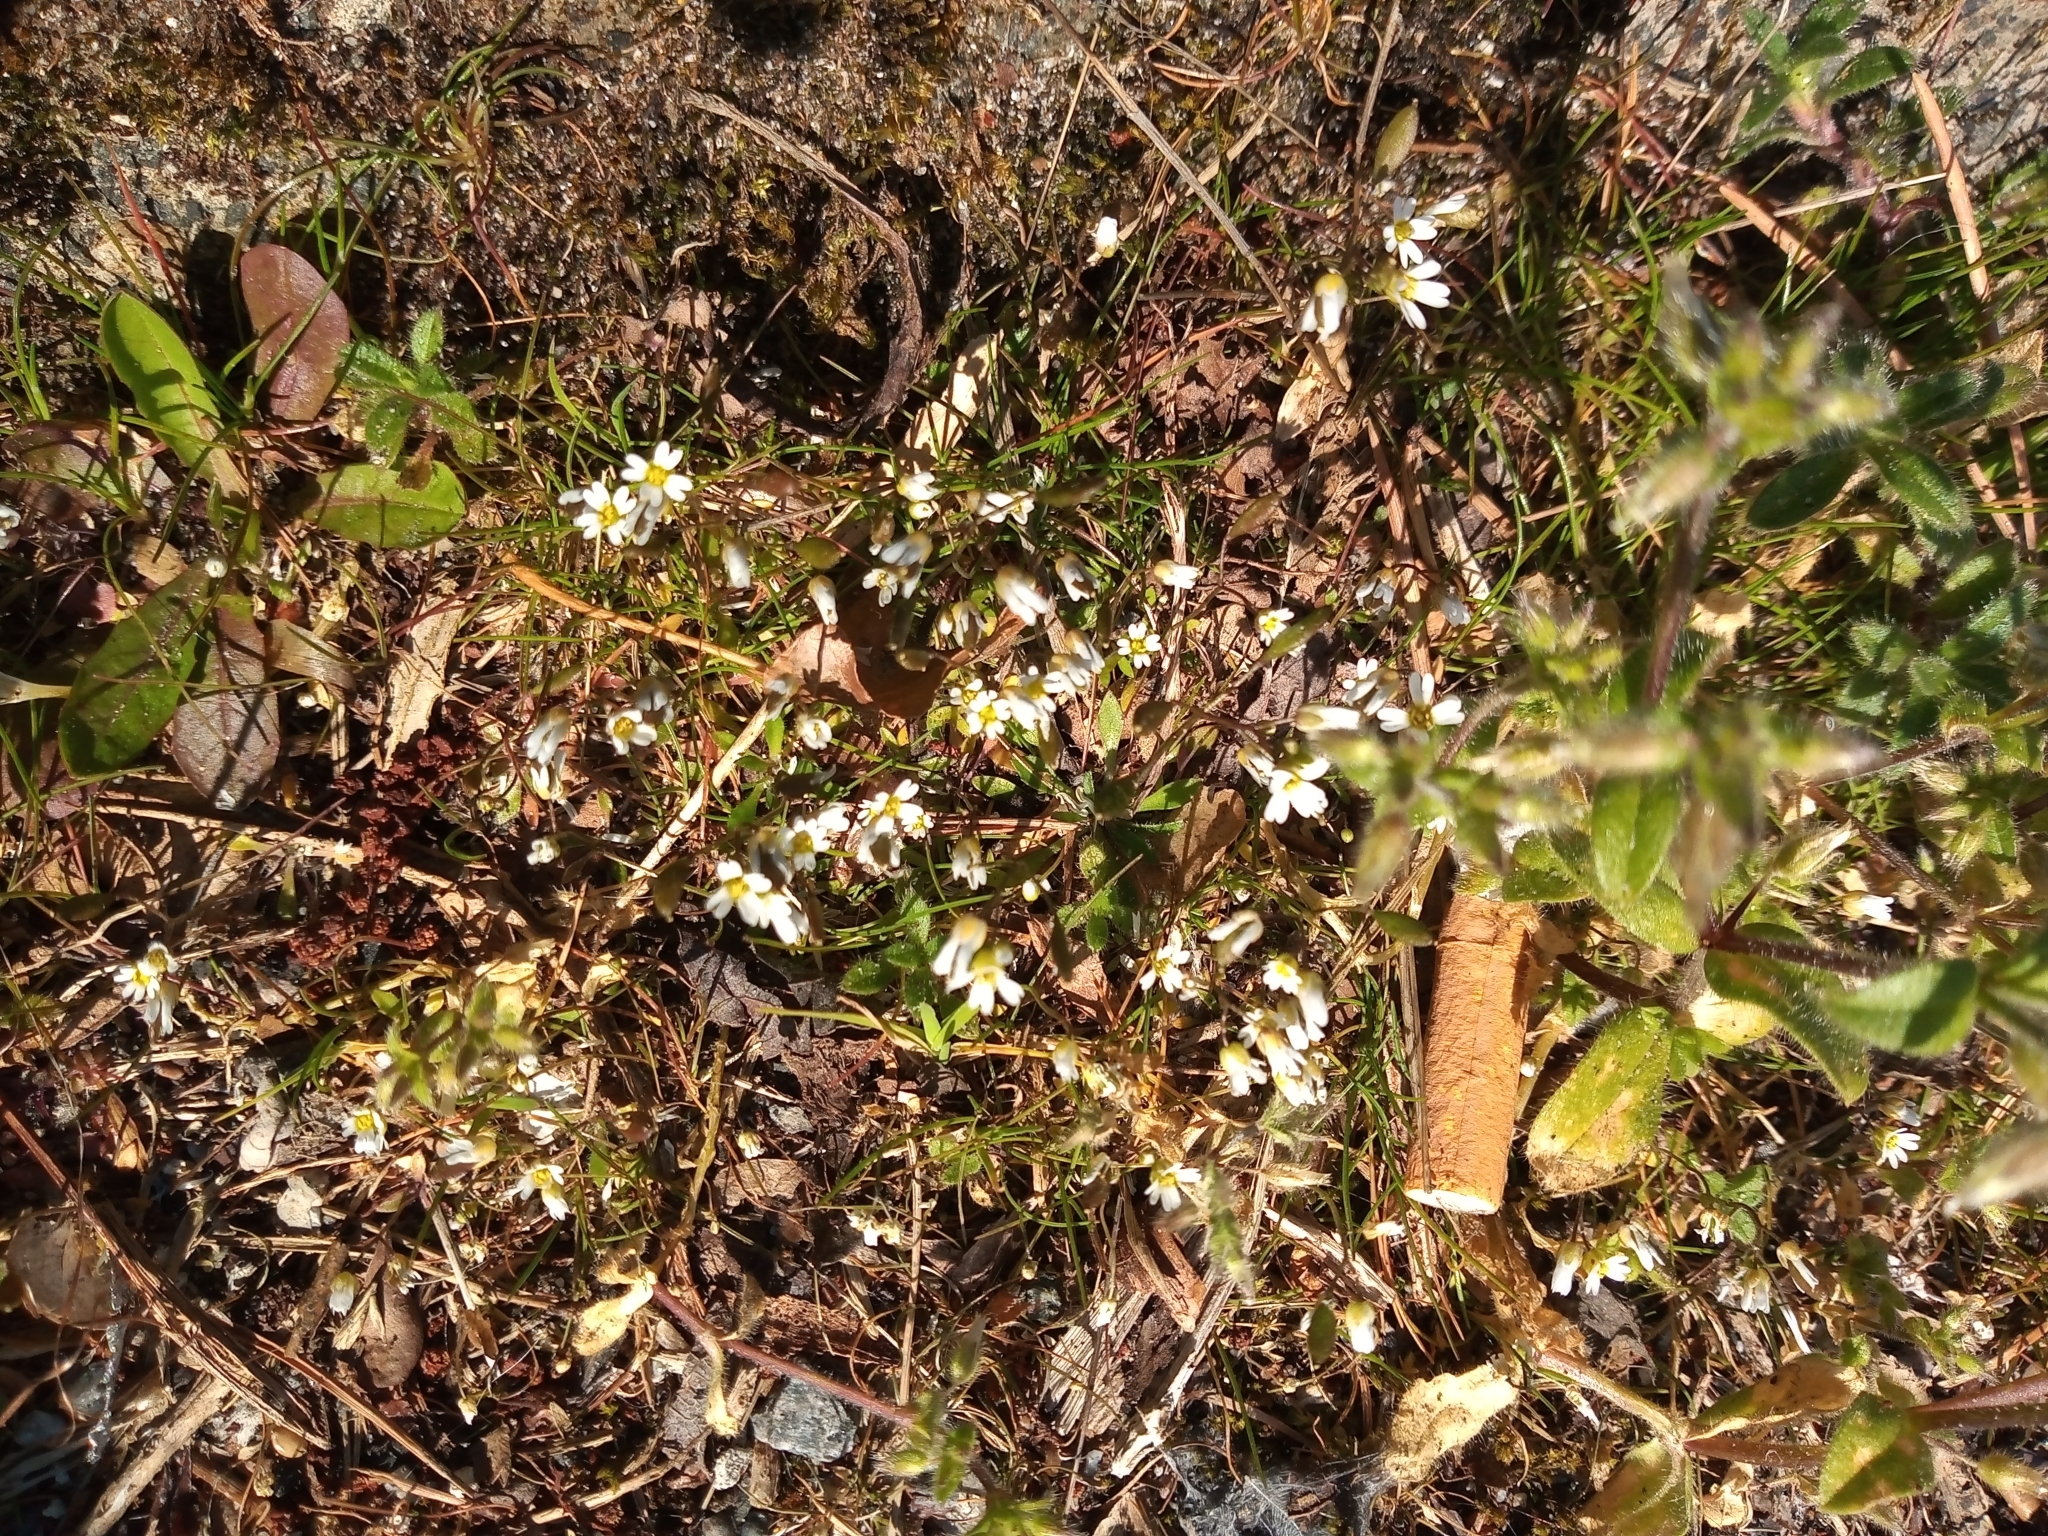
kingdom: Plantae
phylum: Tracheophyta
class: Magnoliopsida
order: Brassicales
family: Brassicaceae
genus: Draba
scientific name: Draba verna
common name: Spring draba
